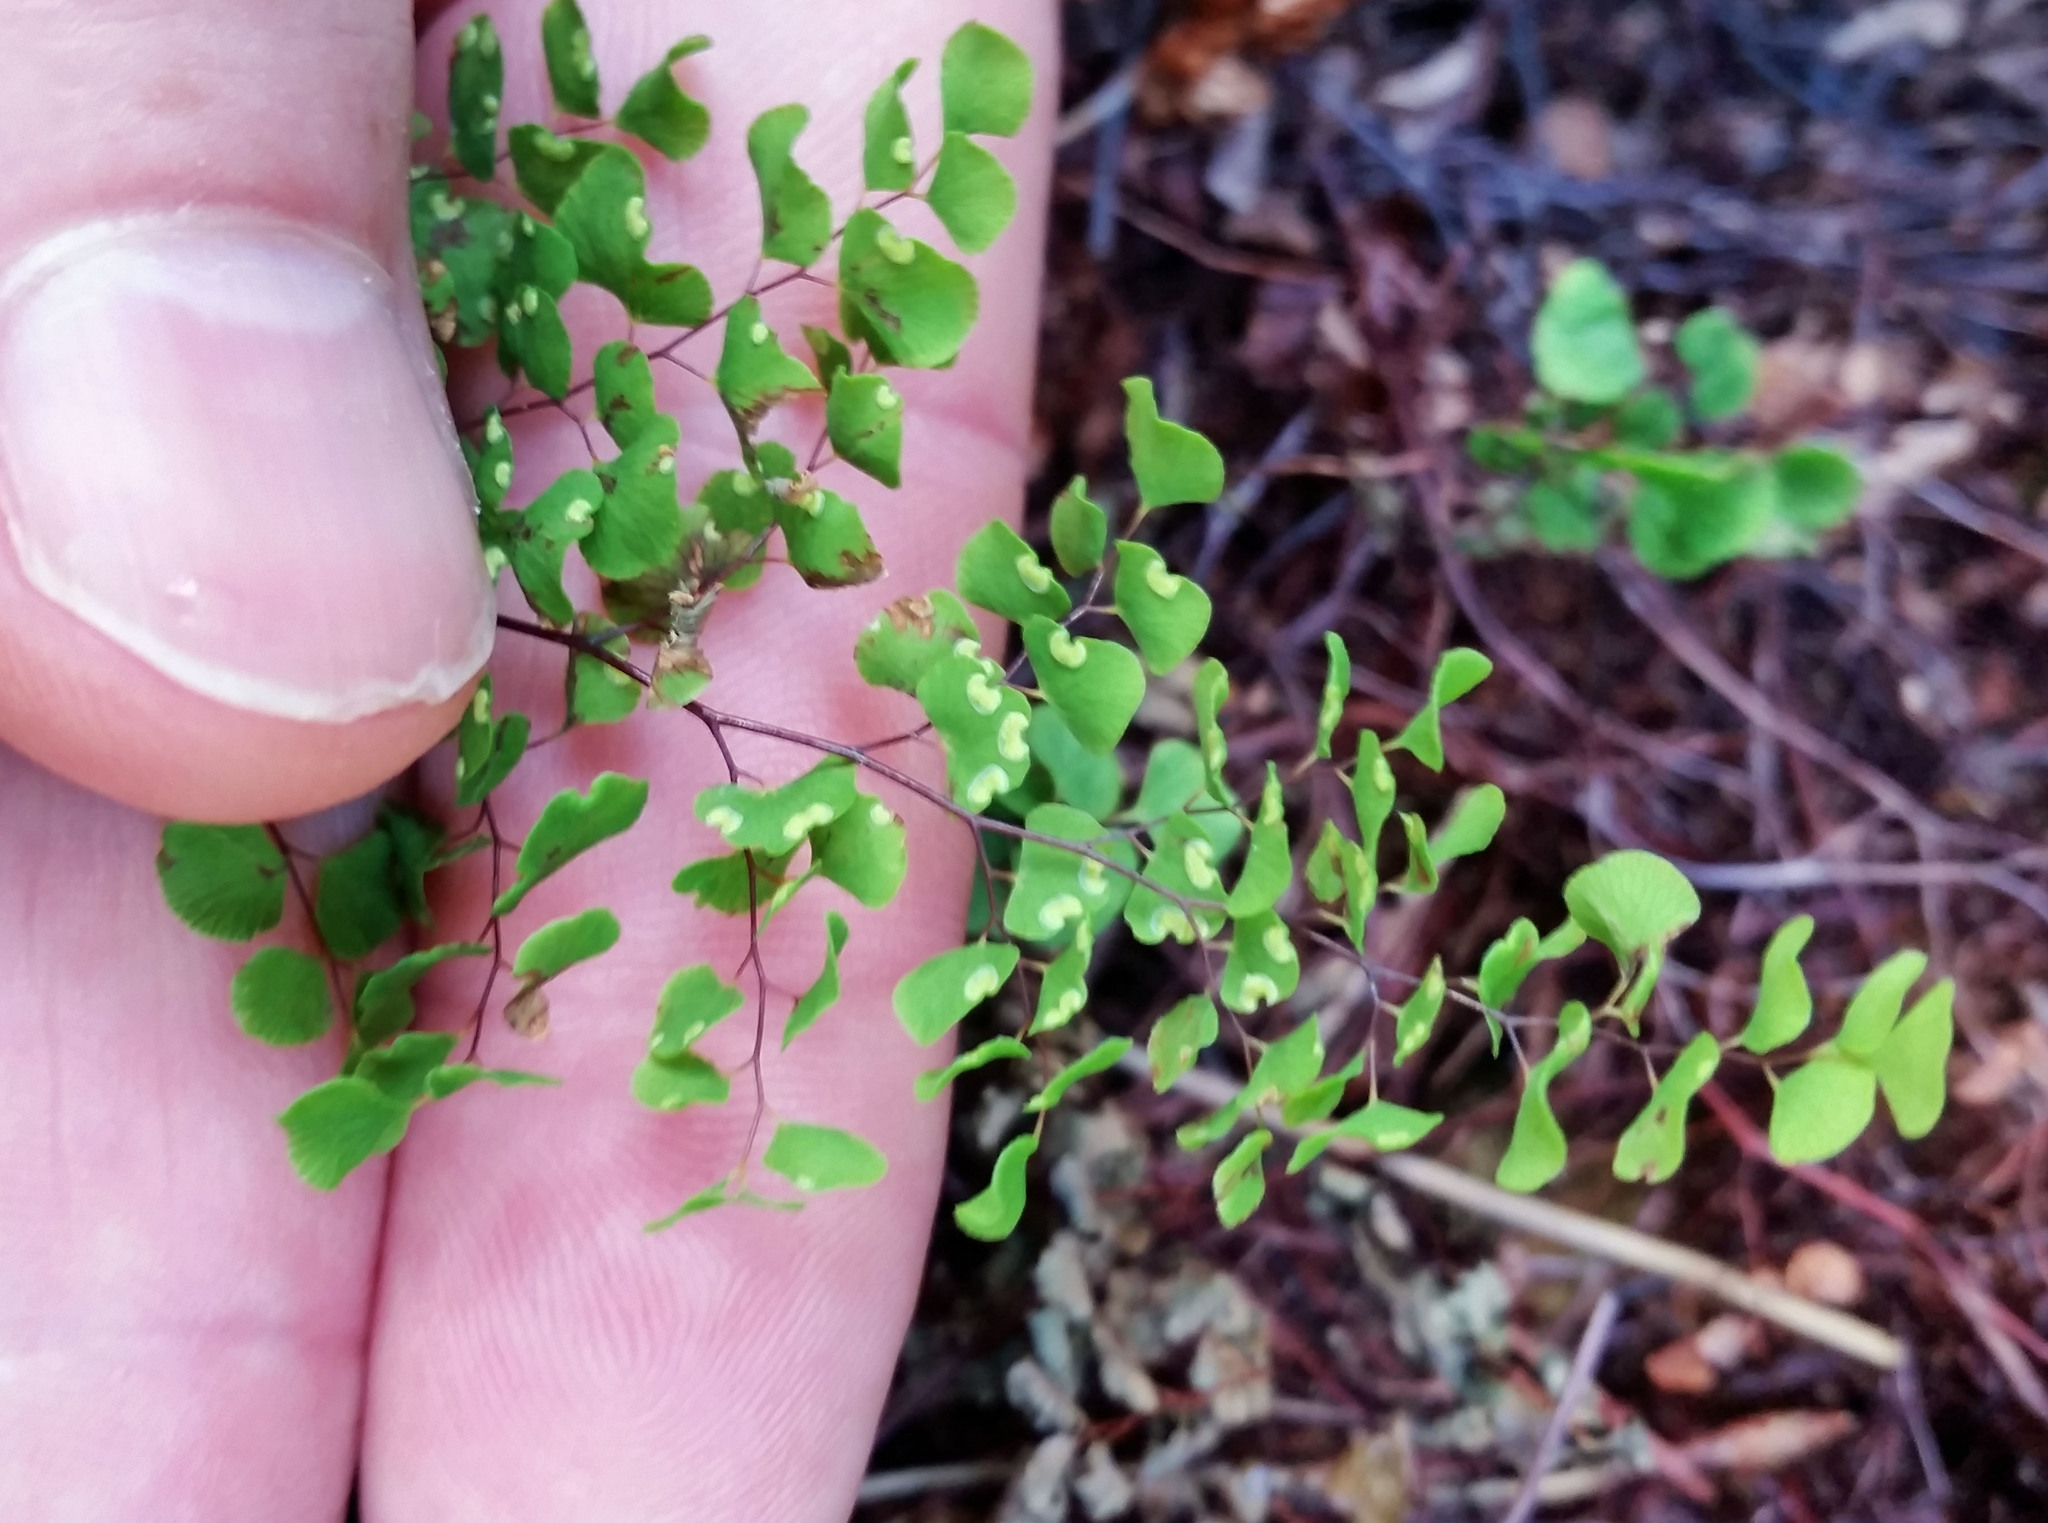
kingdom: Plantae
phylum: Tracheophyta
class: Polypodiopsida
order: Polypodiales
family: Pteridaceae
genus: Adiantum
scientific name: Adiantum aethiopicum
